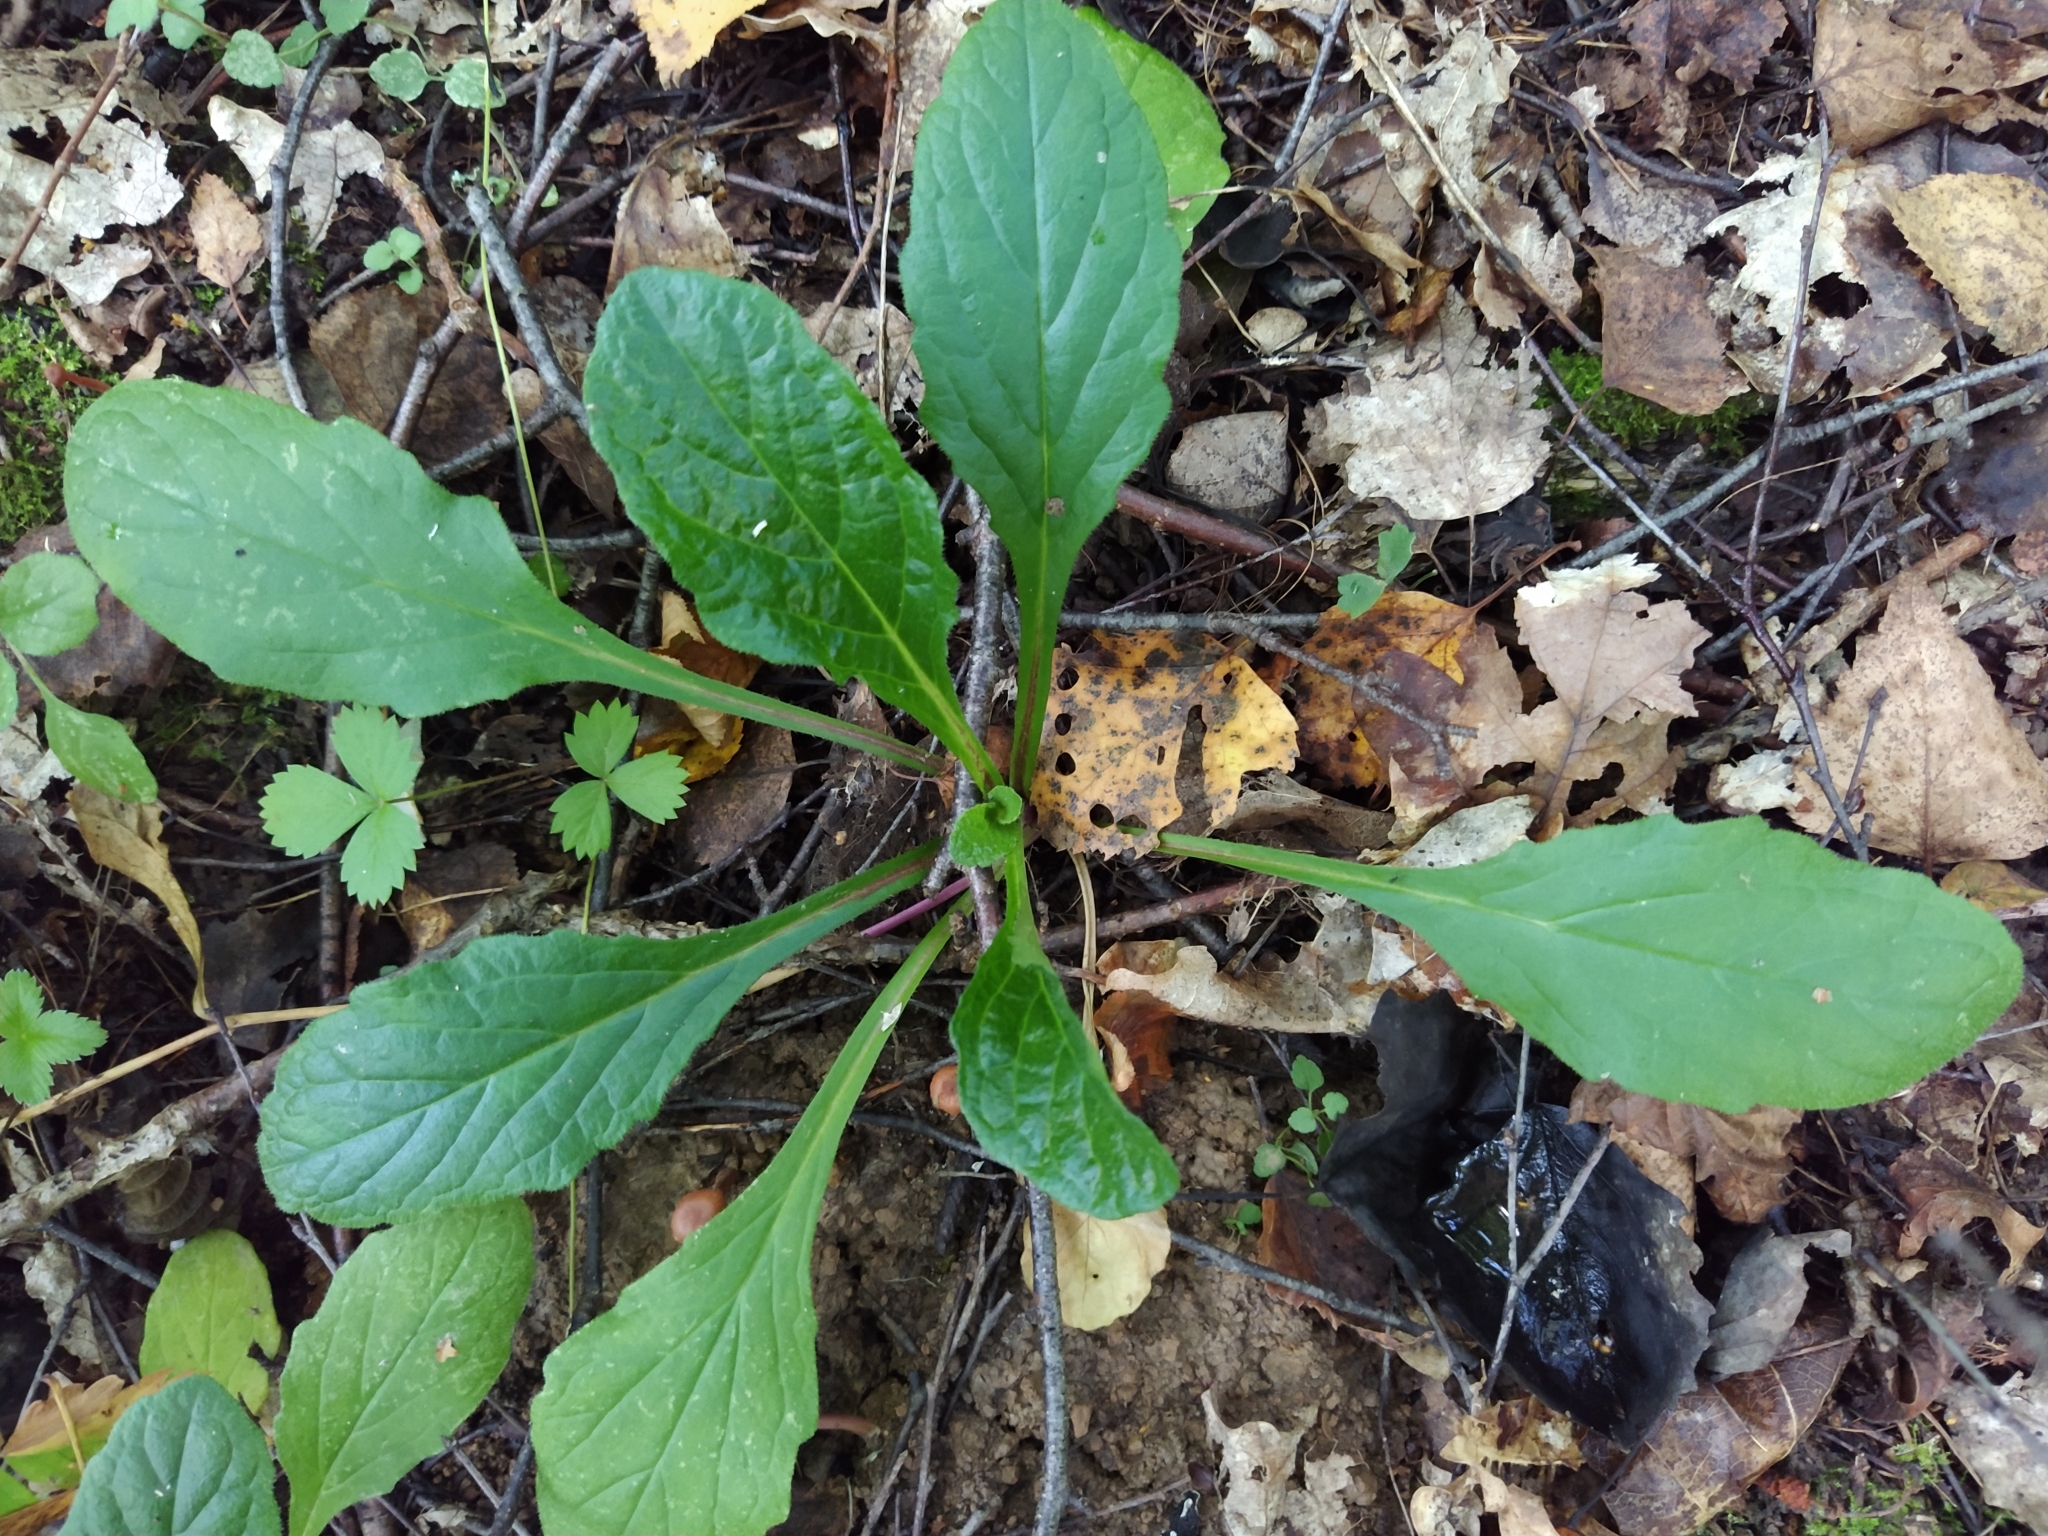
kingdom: Plantae
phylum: Tracheophyta
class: Magnoliopsida
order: Lamiales
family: Lamiaceae
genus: Ajuga
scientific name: Ajuga reptans
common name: Bugle
